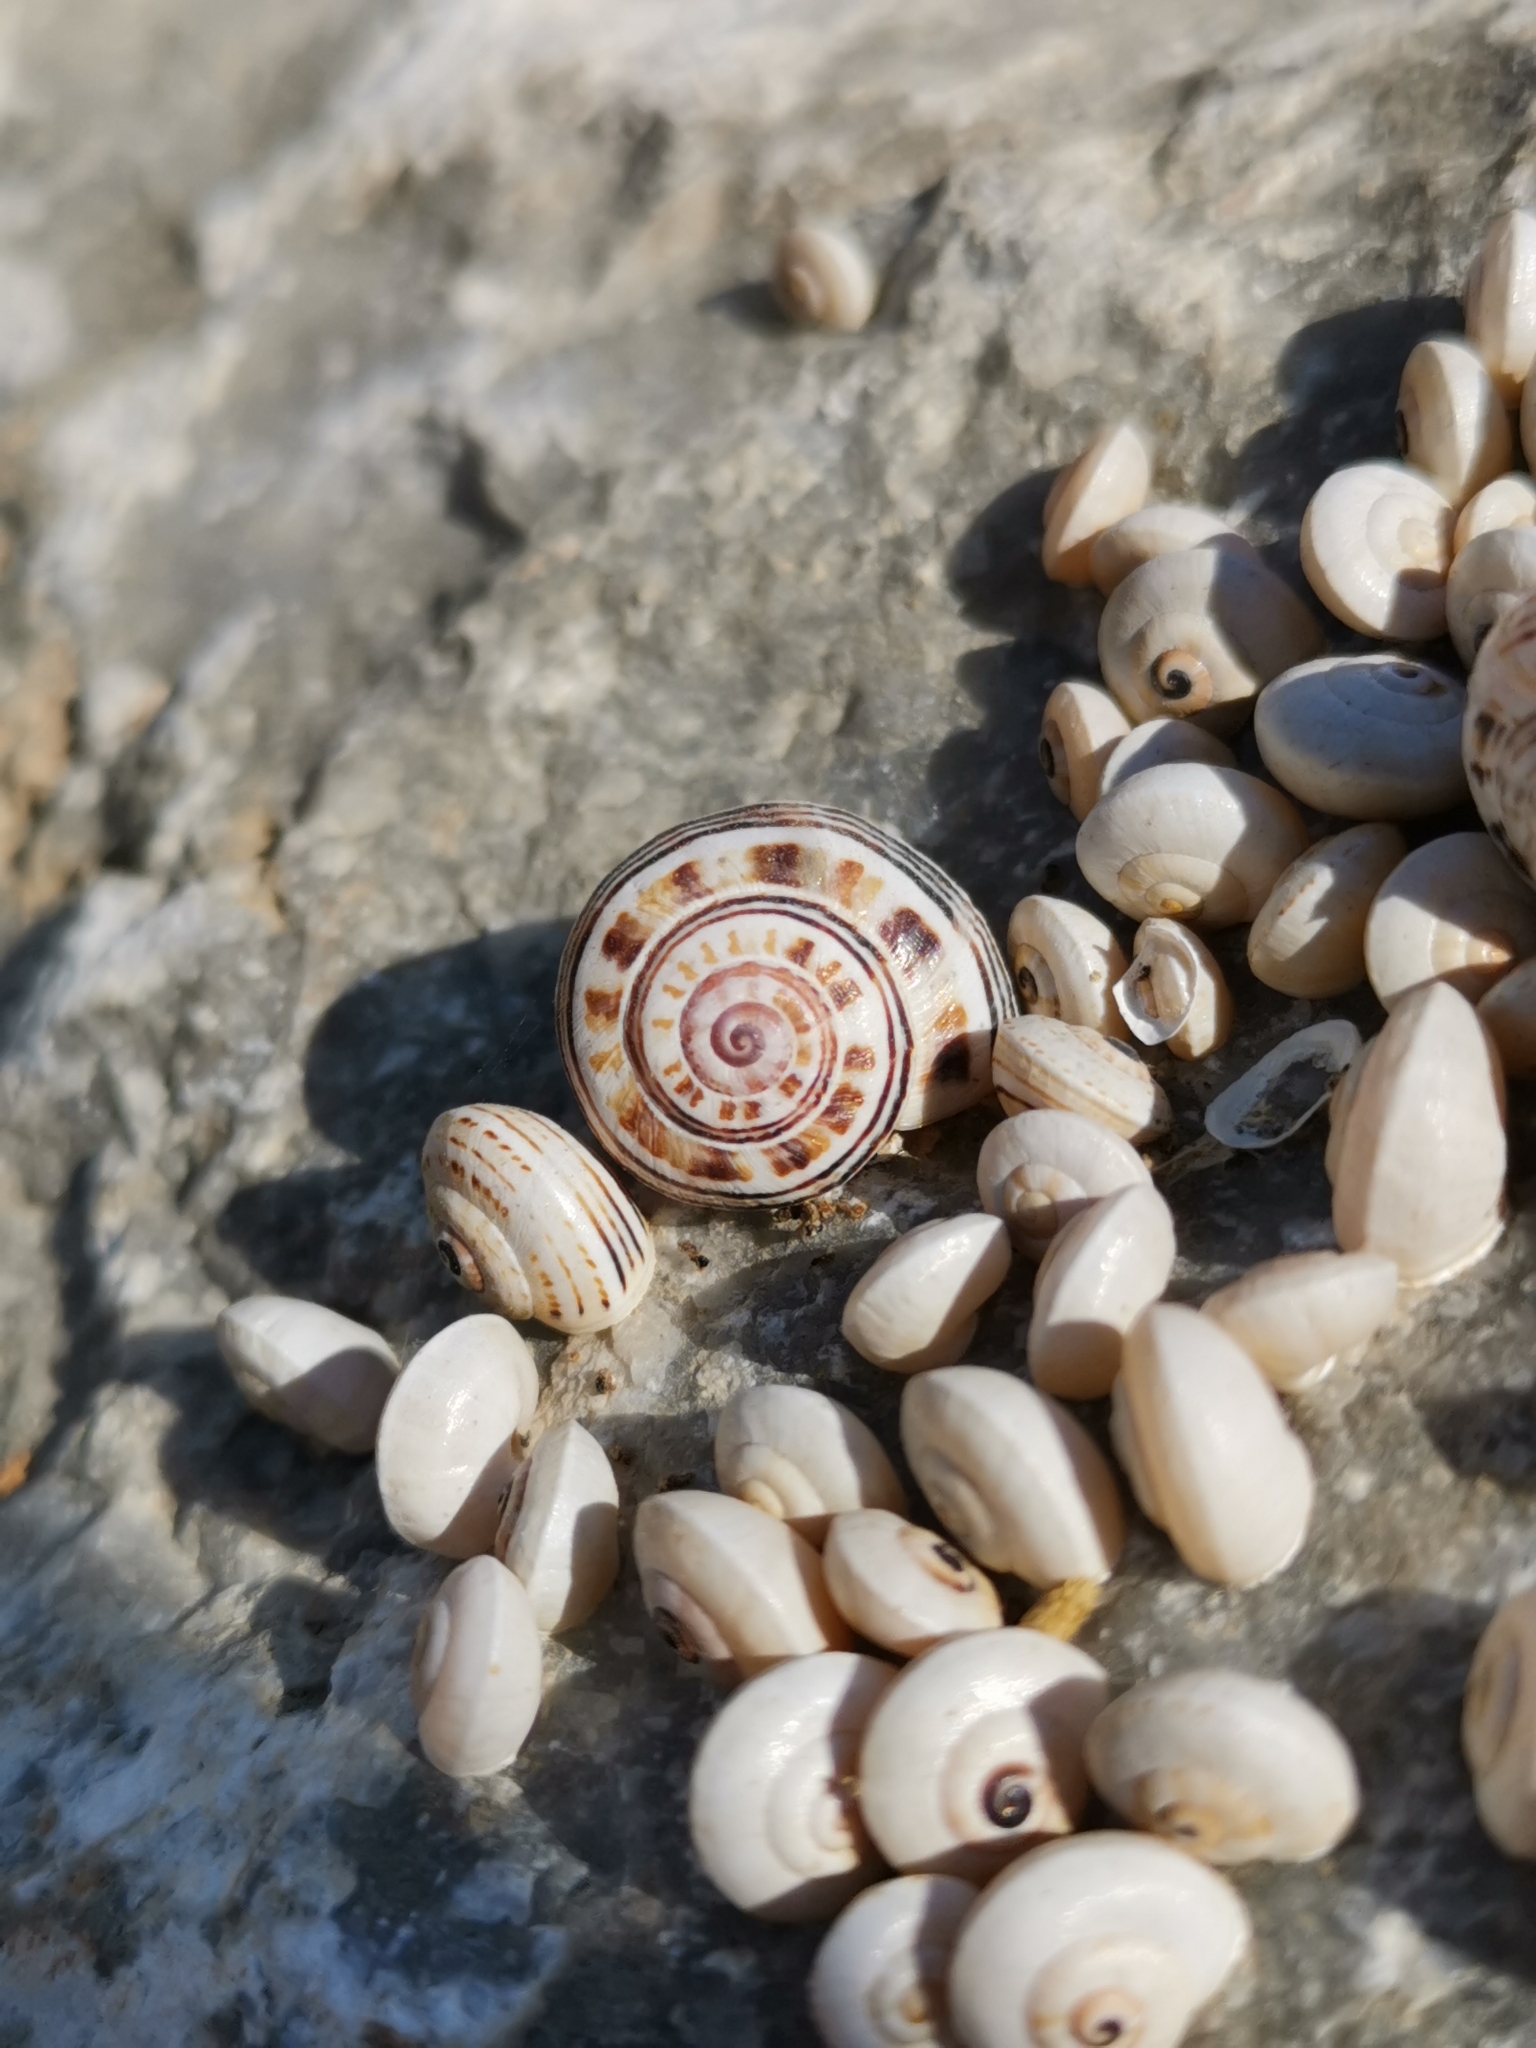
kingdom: Animalia
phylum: Mollusca
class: Gastropoda
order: Stylommatophora
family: Helicidae
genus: Theba
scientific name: Theba pisana
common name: White snail
